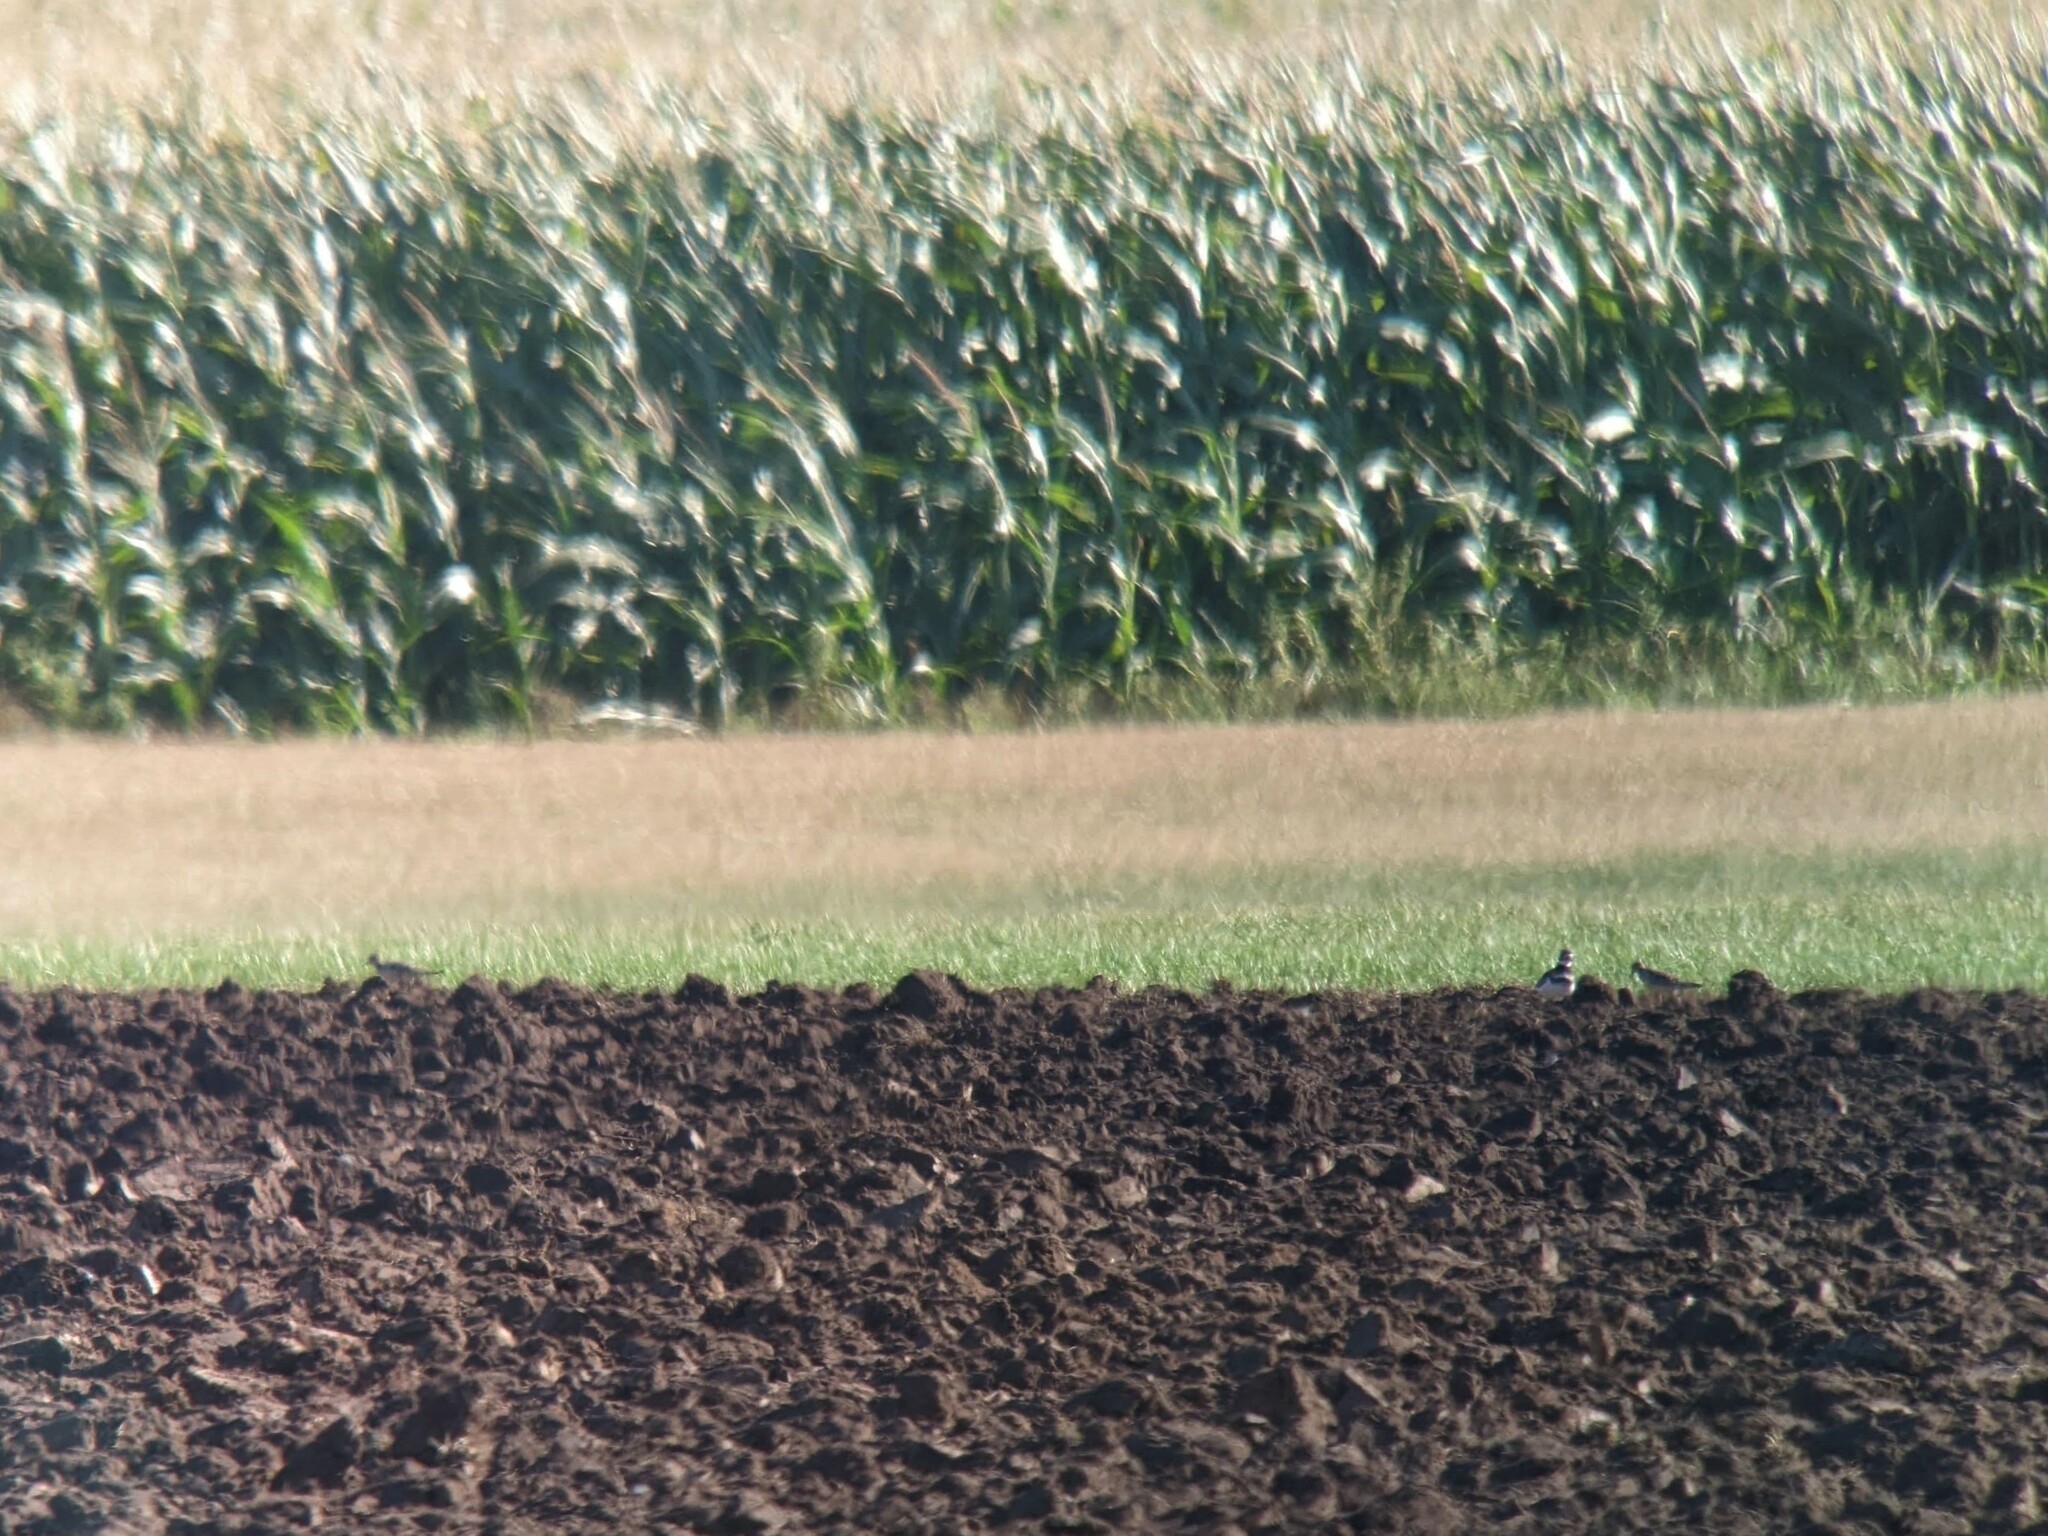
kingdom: Animalia
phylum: Chordata
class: Aves
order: Charadriiformes
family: Scolopacidae
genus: Calidris
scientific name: Calidris subruficollis
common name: Buff-breasted sandpiper
